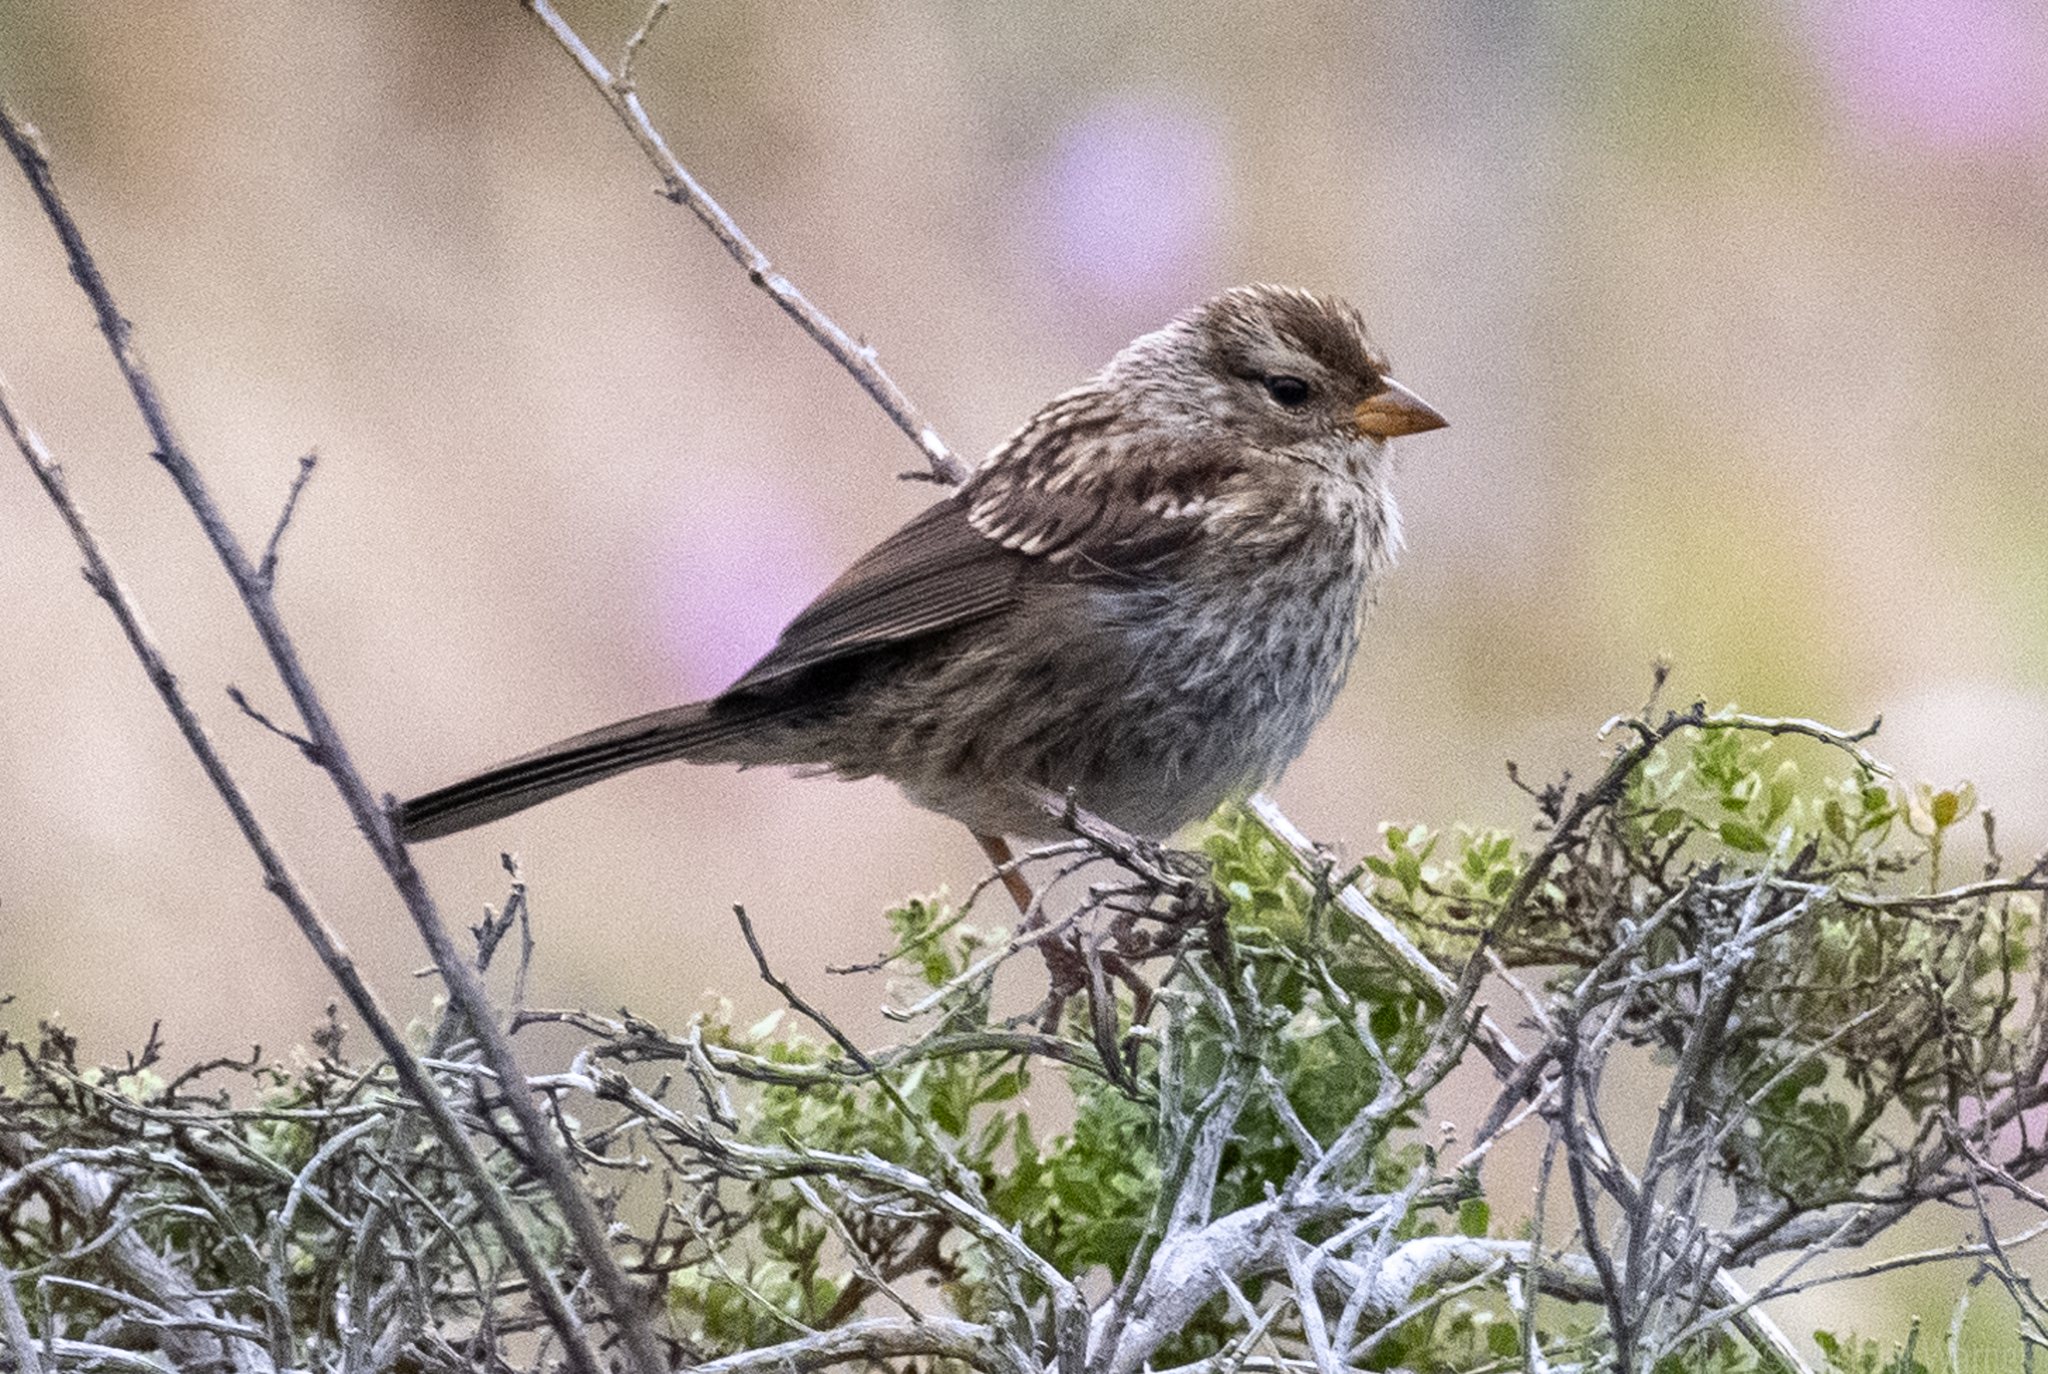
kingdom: Animalia
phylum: Chordata
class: Aves
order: Passeriformes
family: Passerellidae
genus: Zonotrichia
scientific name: Zonotrichia leucophrys
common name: White-crowned sparrow
